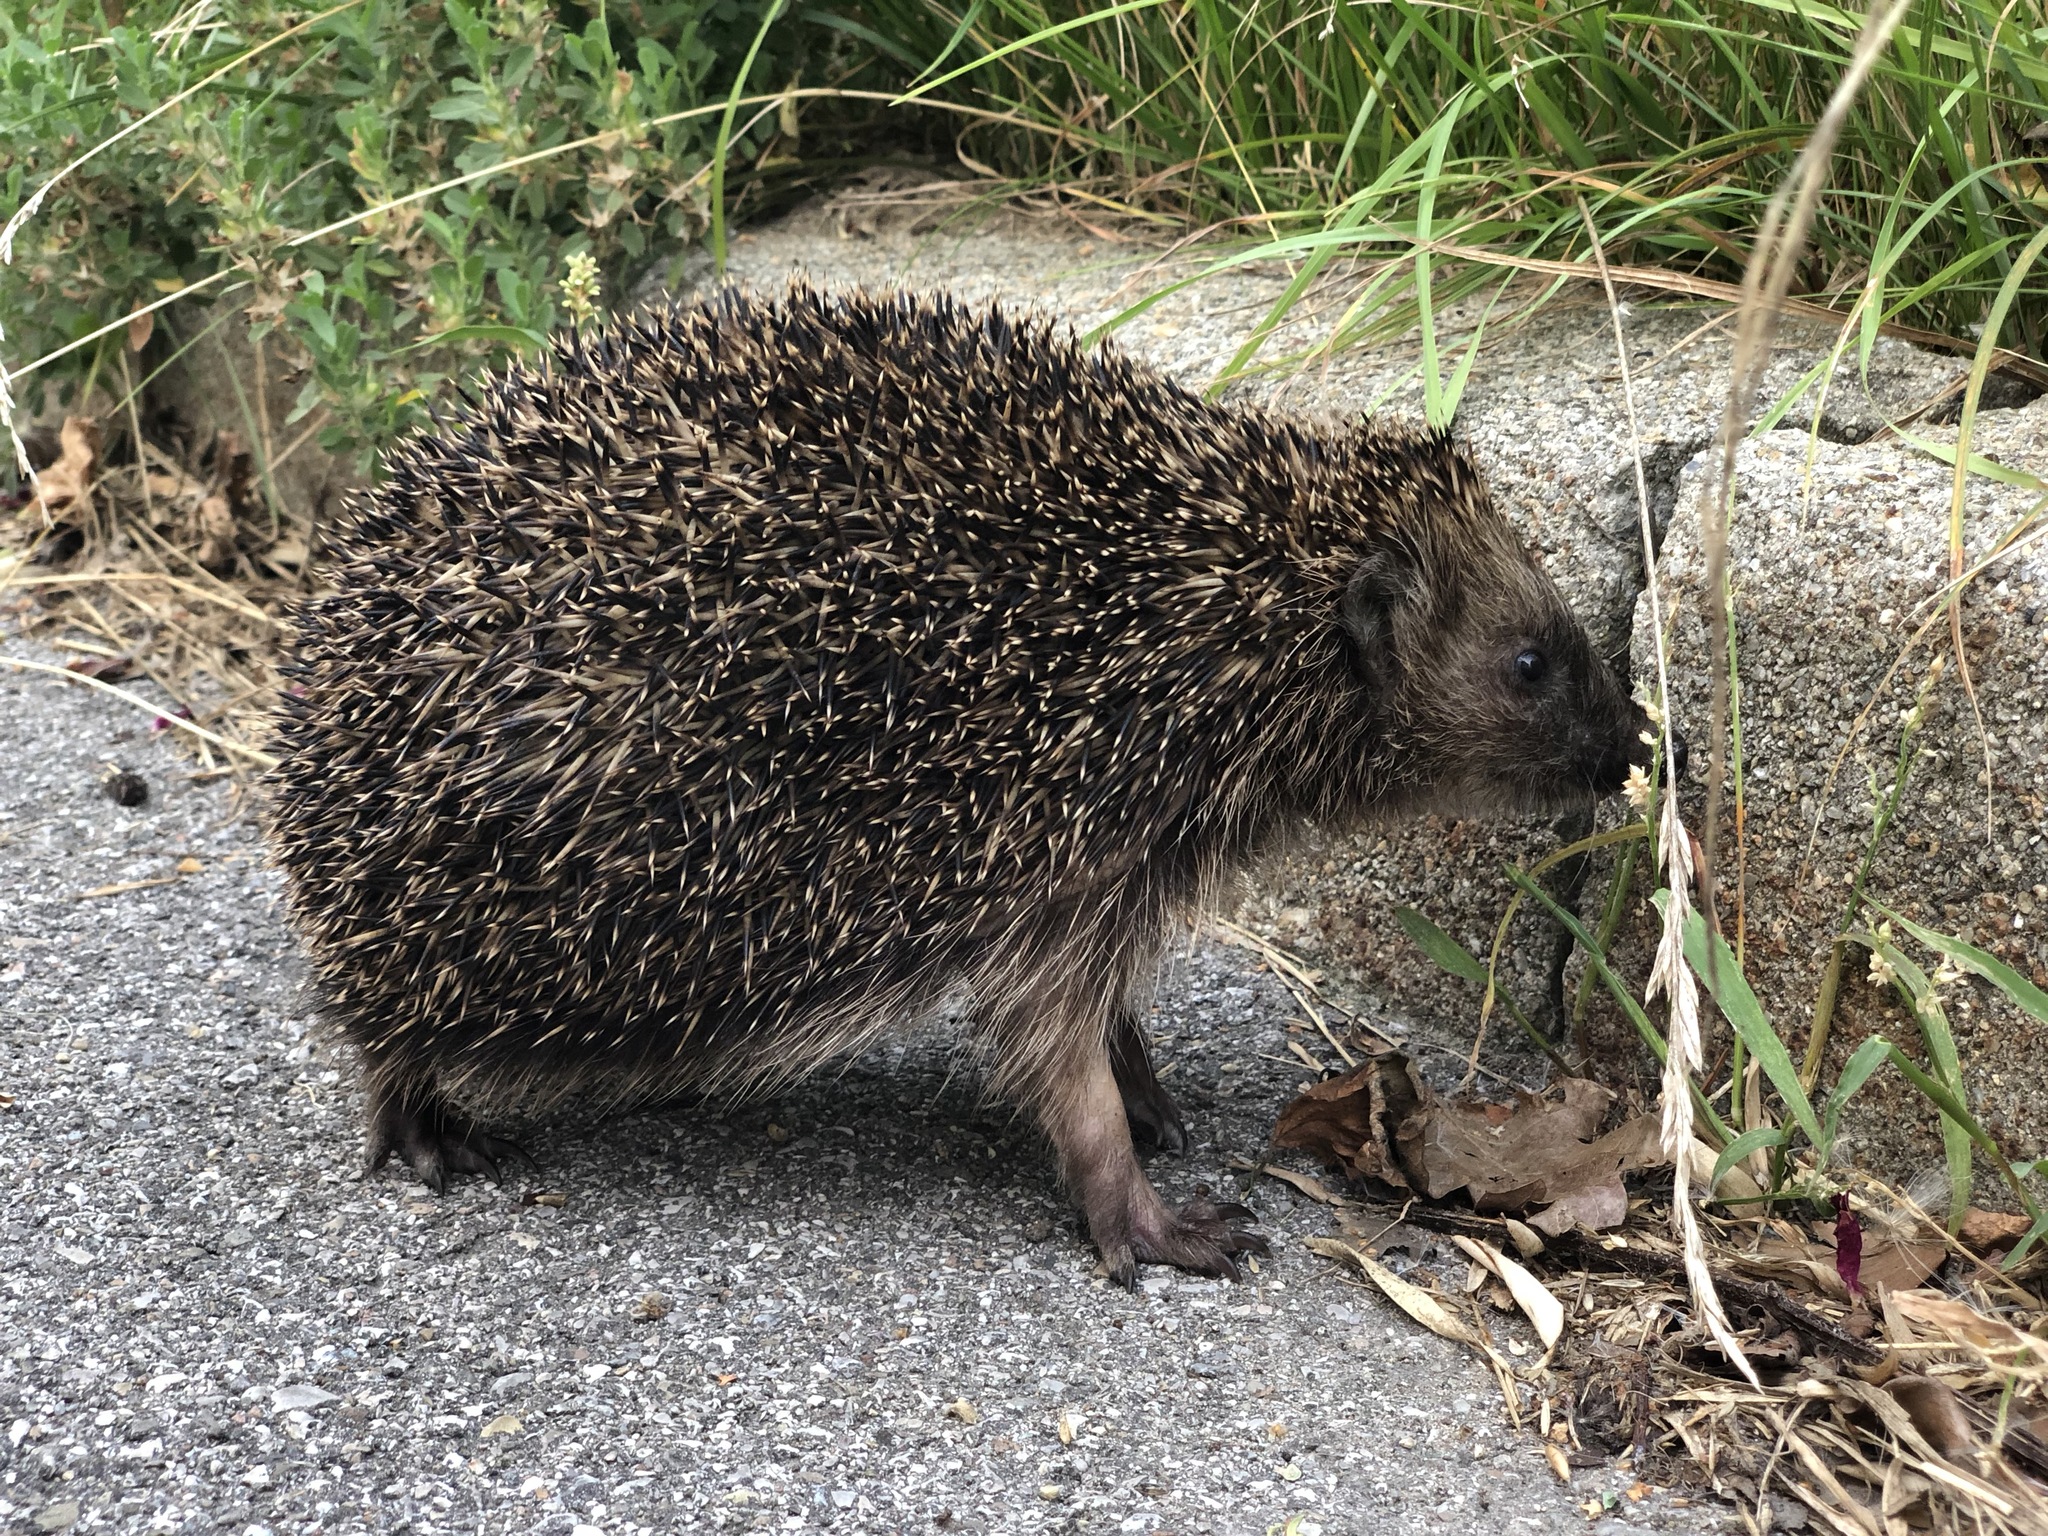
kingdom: Animalia
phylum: Chordata
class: Mammalia
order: Erinaceomorpha
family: Erinaceidae
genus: Erinaceus
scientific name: Erinaceus europaeus
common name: West european hedgehog
